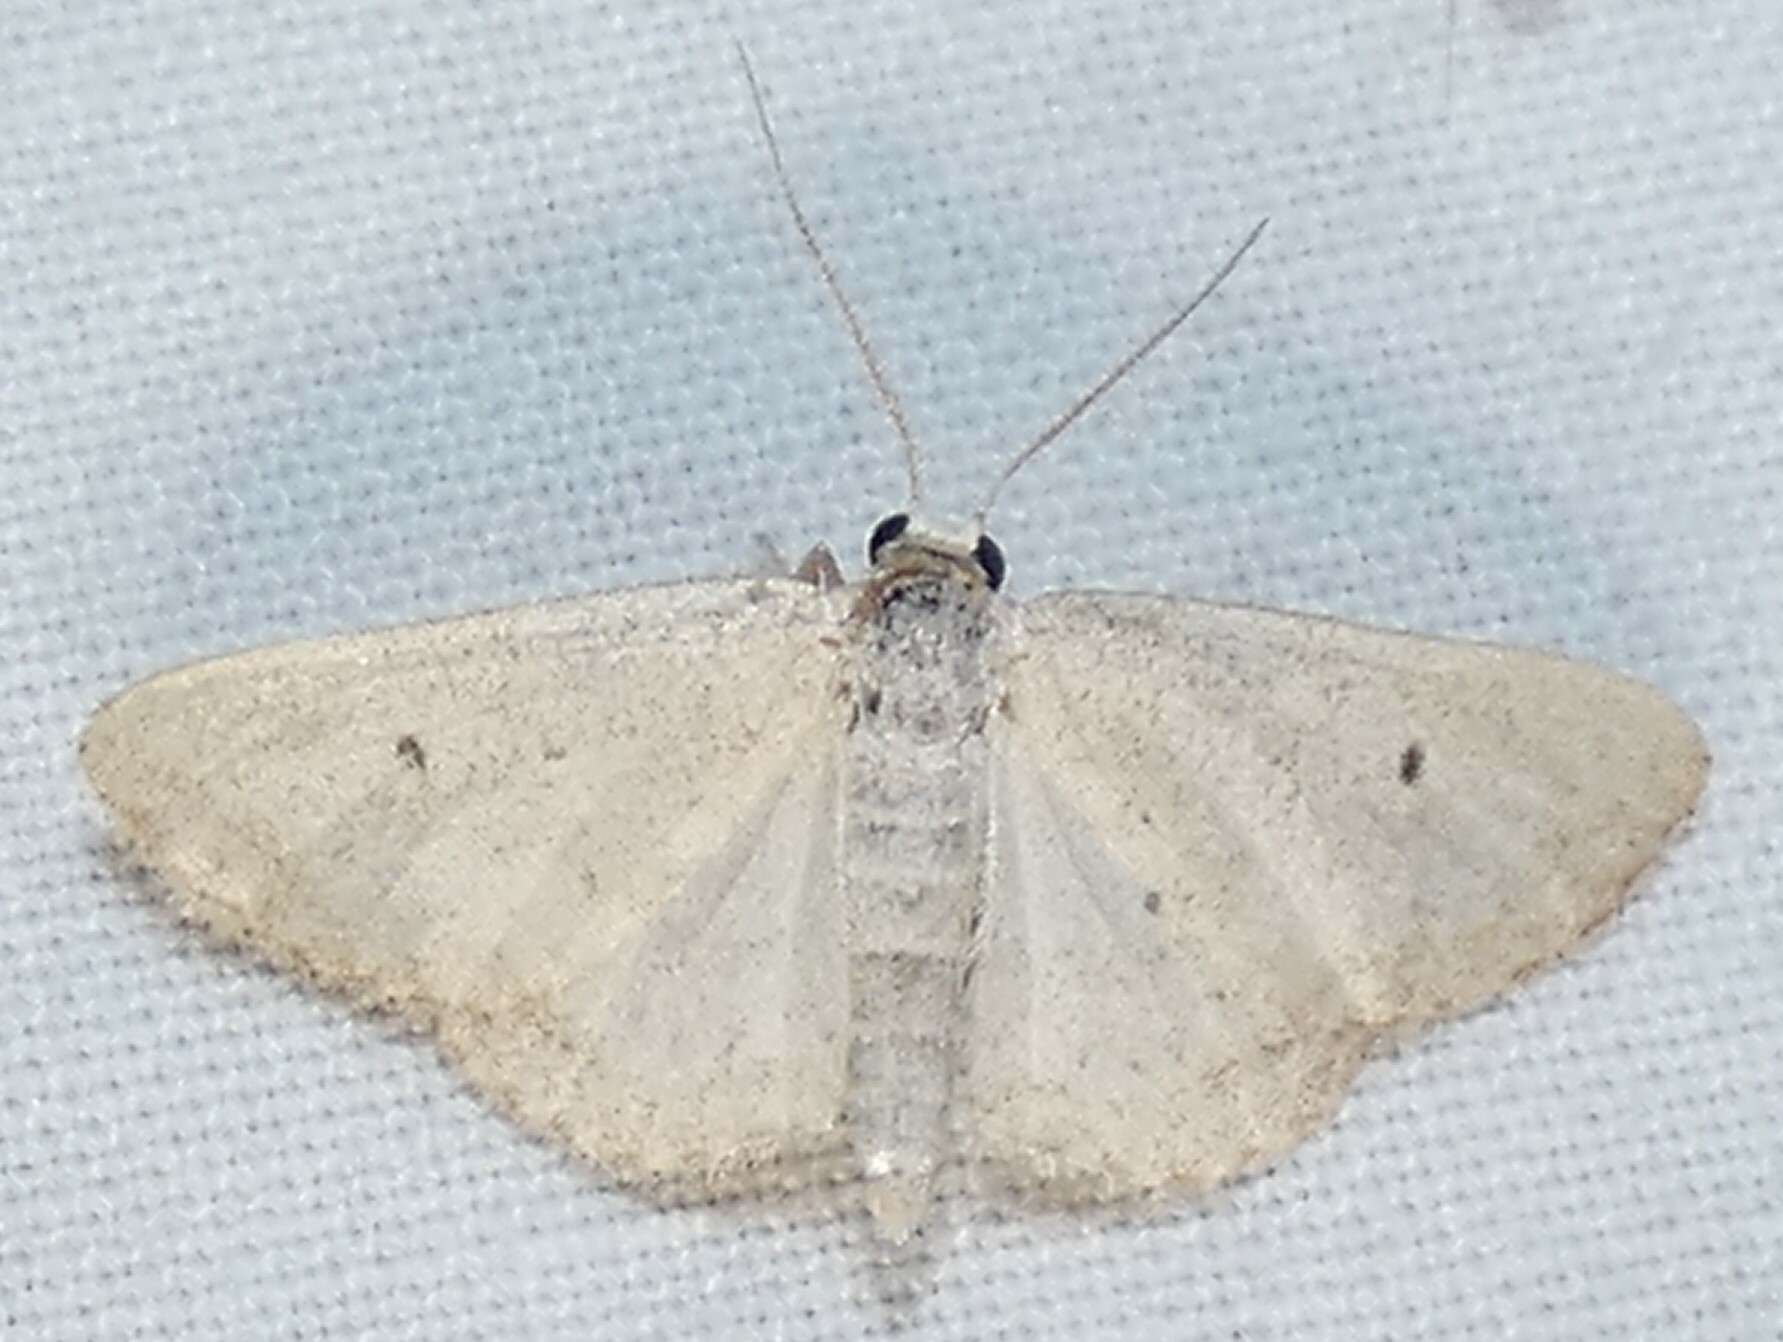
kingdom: Animalia
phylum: Arthropoda
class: Insecta
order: Lepidoptera
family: Geometridae
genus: Lobocleta
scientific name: Lobocleta ossularia
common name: Drab brown wave
